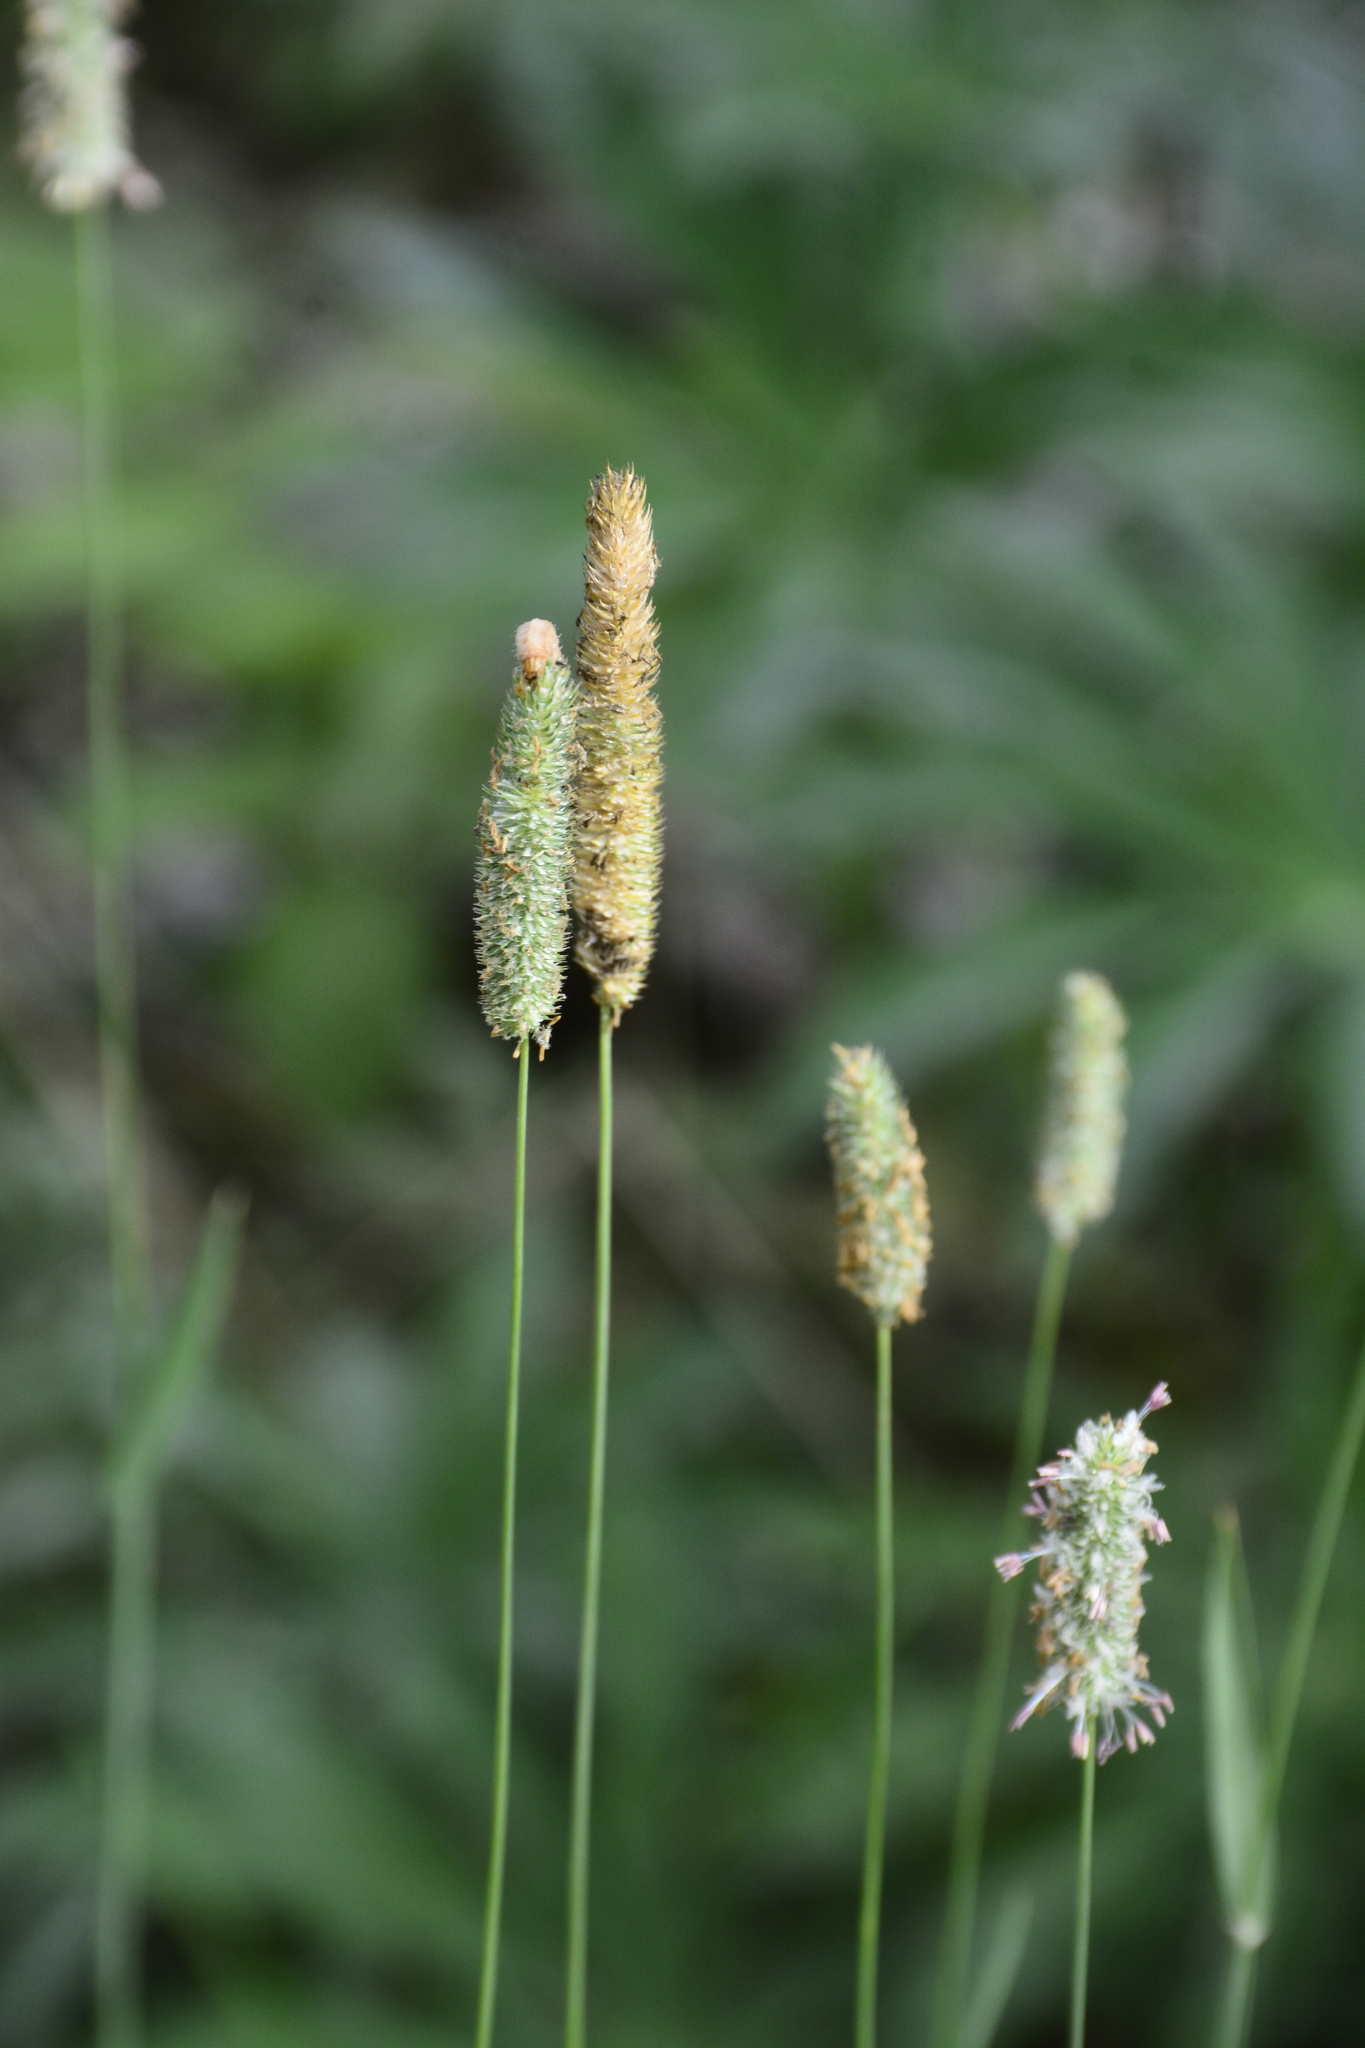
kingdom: Plantae
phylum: Tracheophyta
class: Liliopsida
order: Poales
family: Poaceae
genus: Phleum
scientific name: Phleum pratense
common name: Timothy grass
